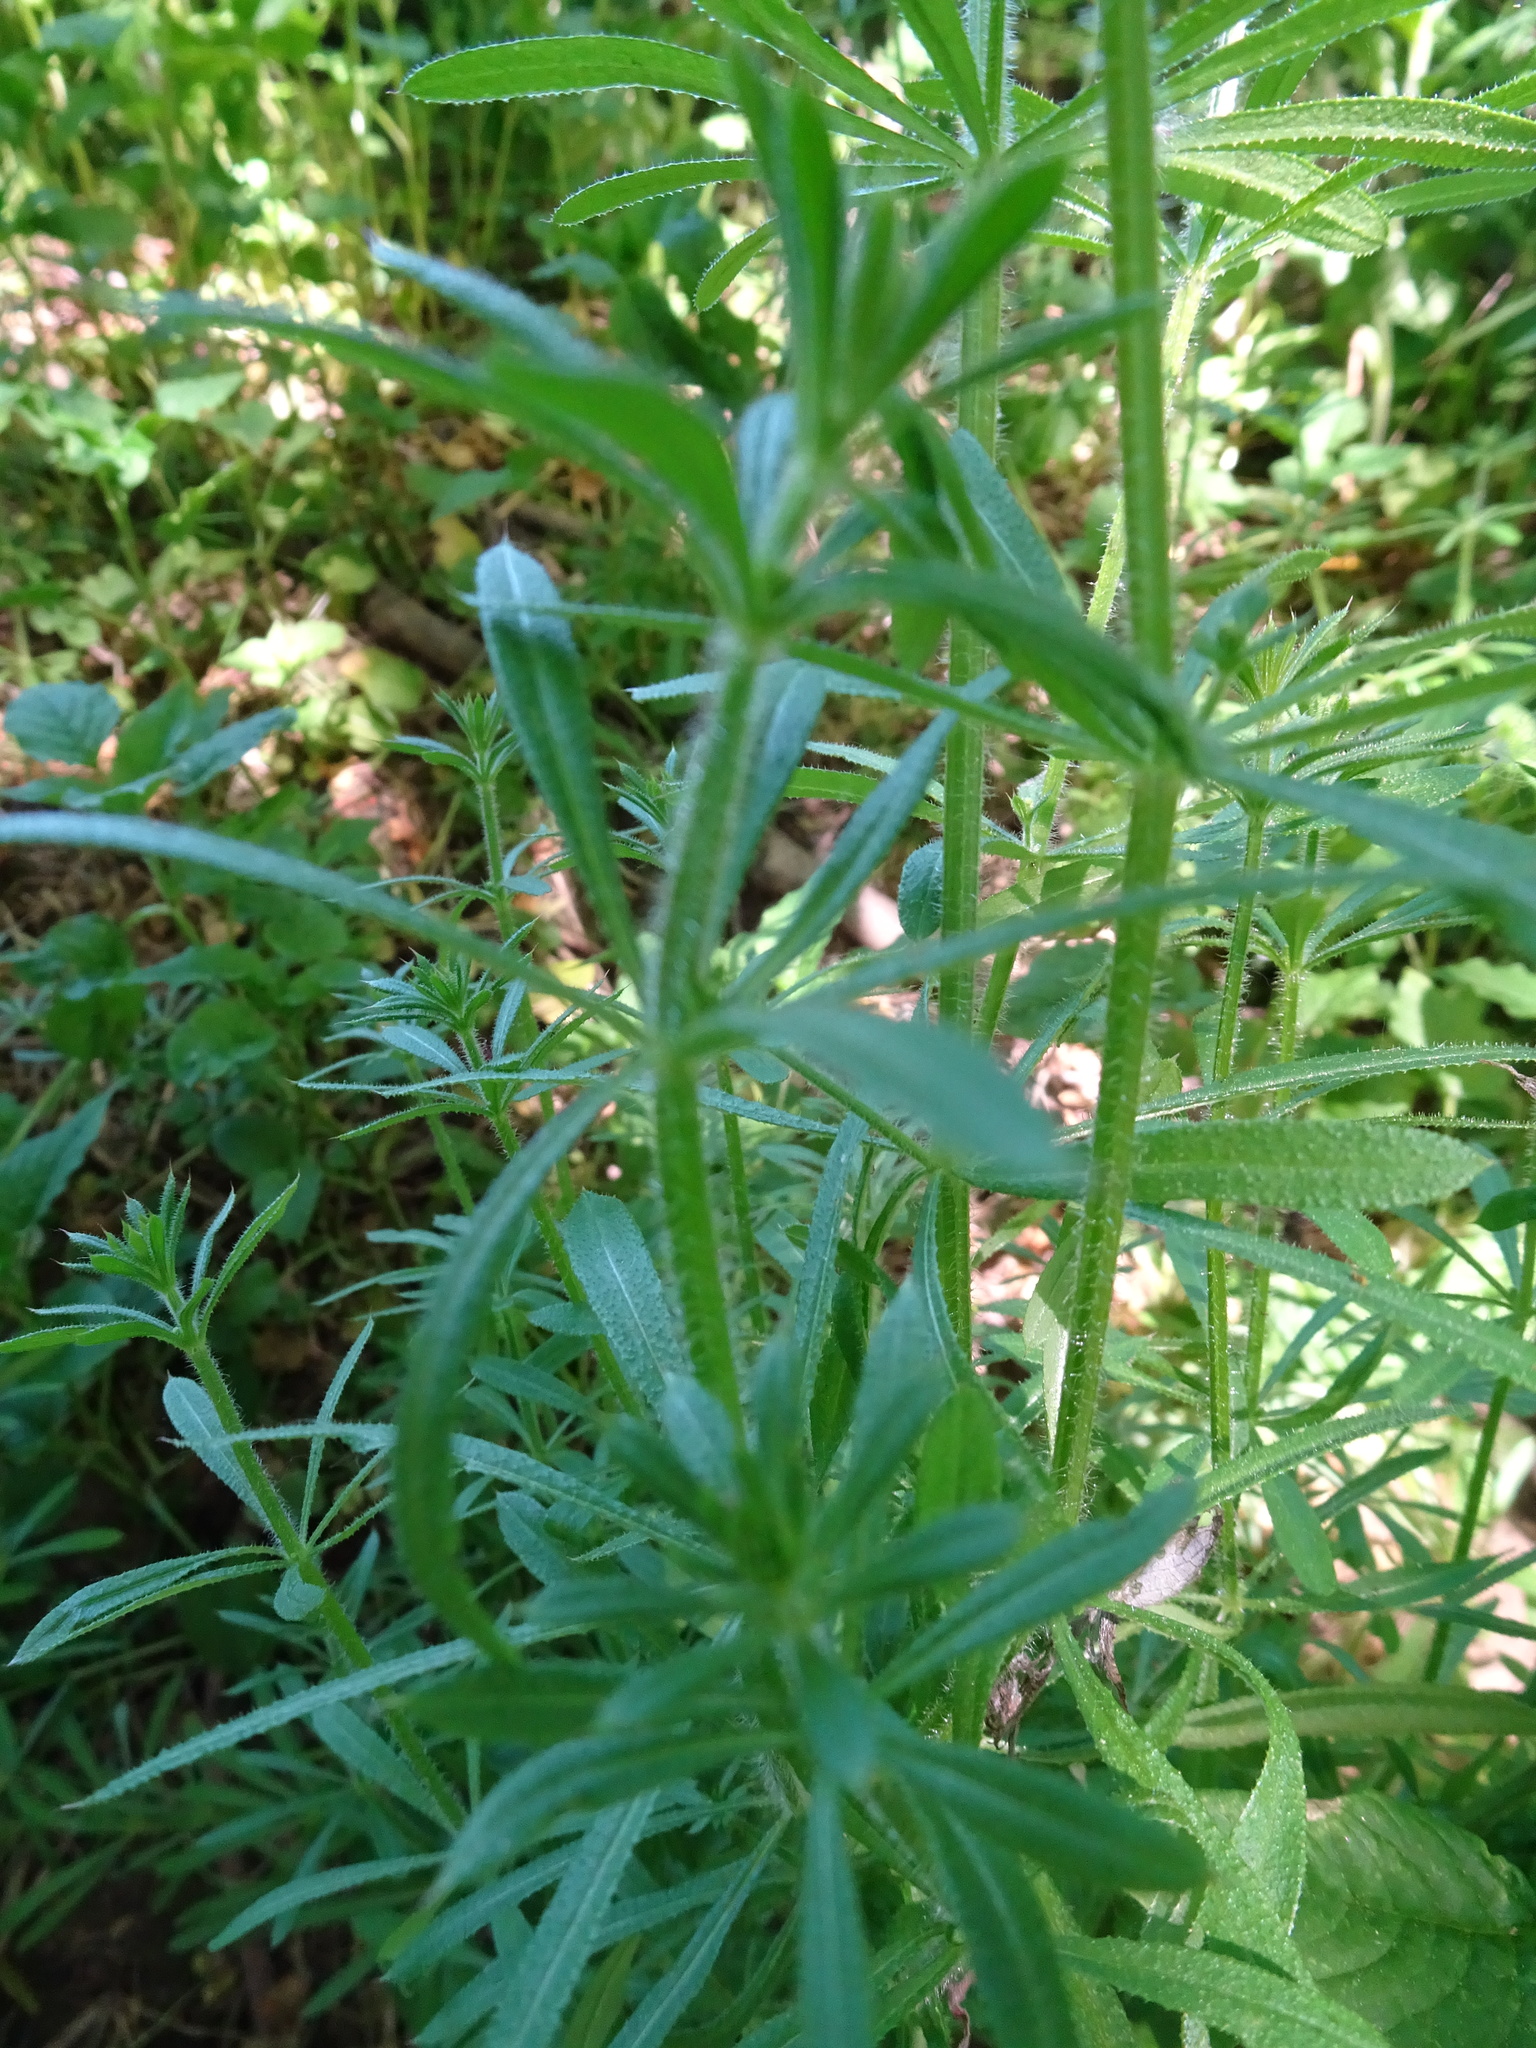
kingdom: Plantae
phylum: Tracheophyta
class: Magnoliopsida
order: Gentianales
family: Rubiaceae
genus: Galium
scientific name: Galium aparine
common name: Cleavers
